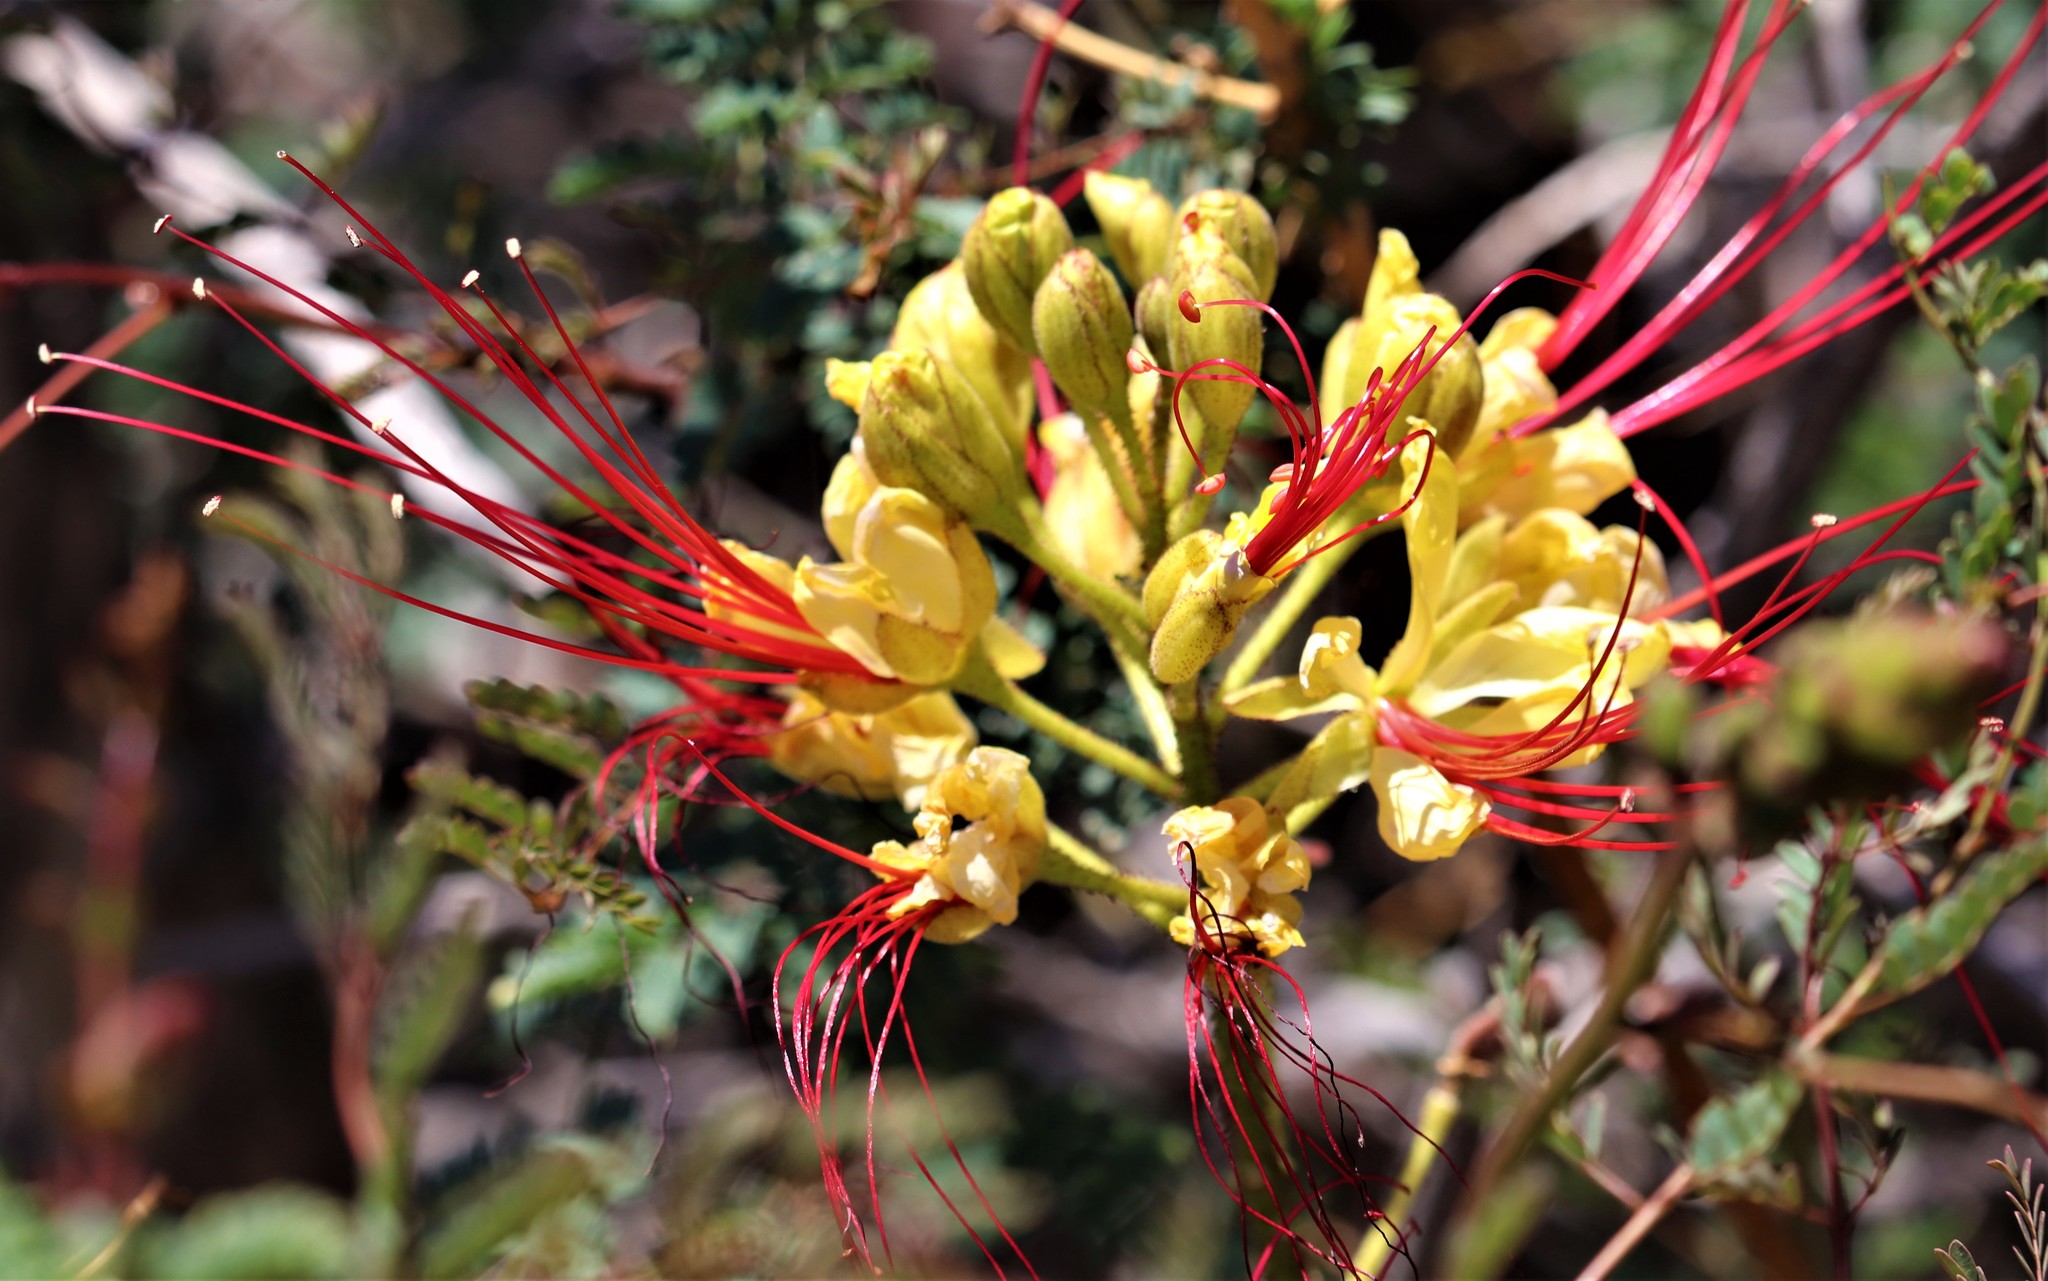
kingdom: Plantae
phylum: Tracheophyta
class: Magnoliopsida
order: Fabales
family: Fabaceae
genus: Erythrostemon
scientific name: Erythrostemon gilliesii
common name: Bird-of-paradise shrub
